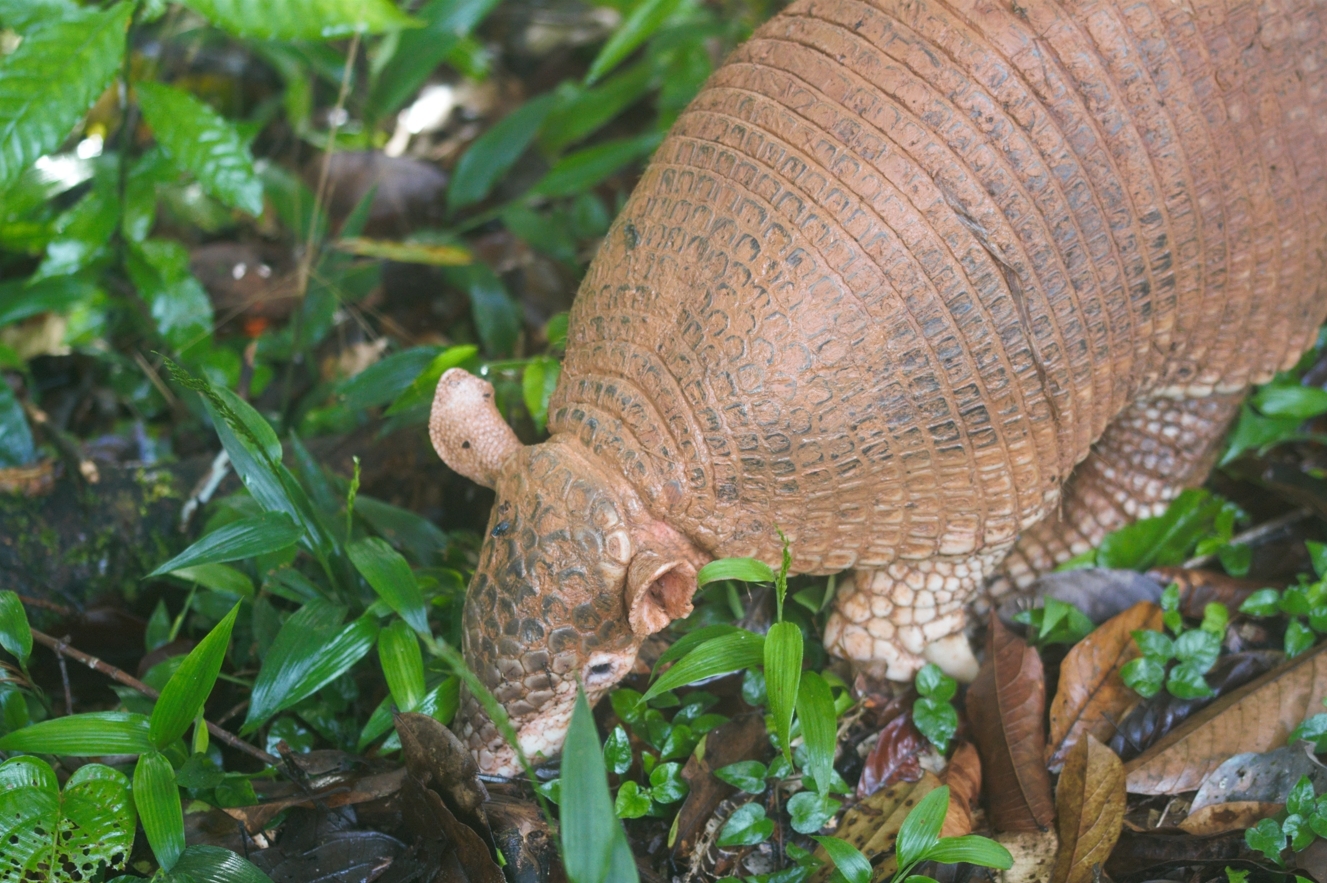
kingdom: Animalia
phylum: Chordata
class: Mammalia
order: Cingulata
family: Dasypodidae
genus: Priodontes
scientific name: Priodontes maximus
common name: Giant armadillo
